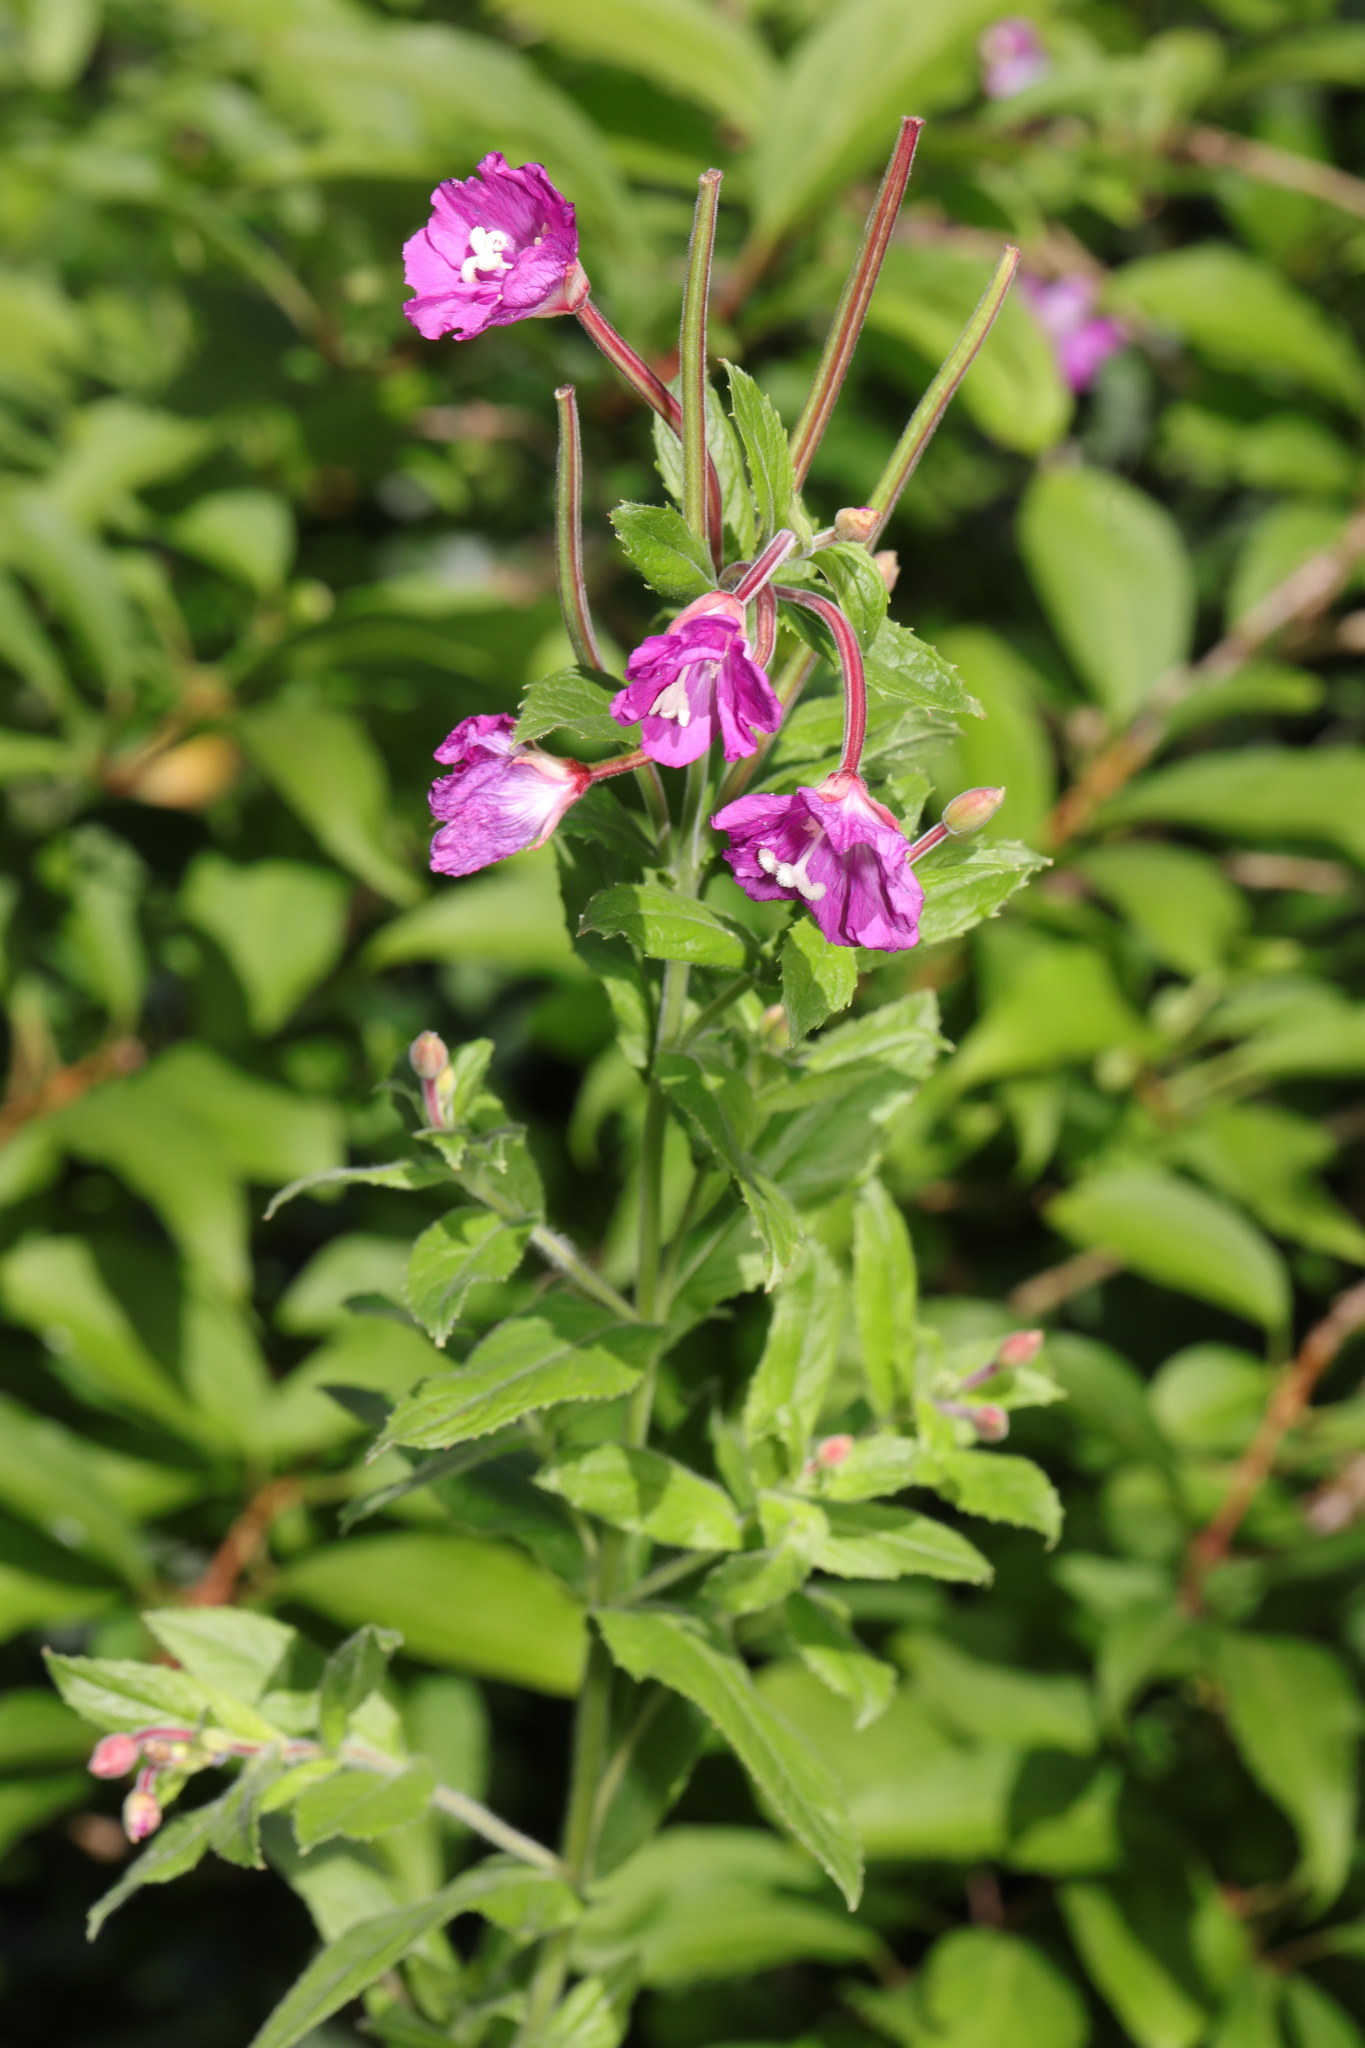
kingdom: Plantae
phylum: Tracheophyta
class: Magnoliopsida
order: Myrtales
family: Onagraceae
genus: Epilobium
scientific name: Epilobium hirsutum
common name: Great willowherb
